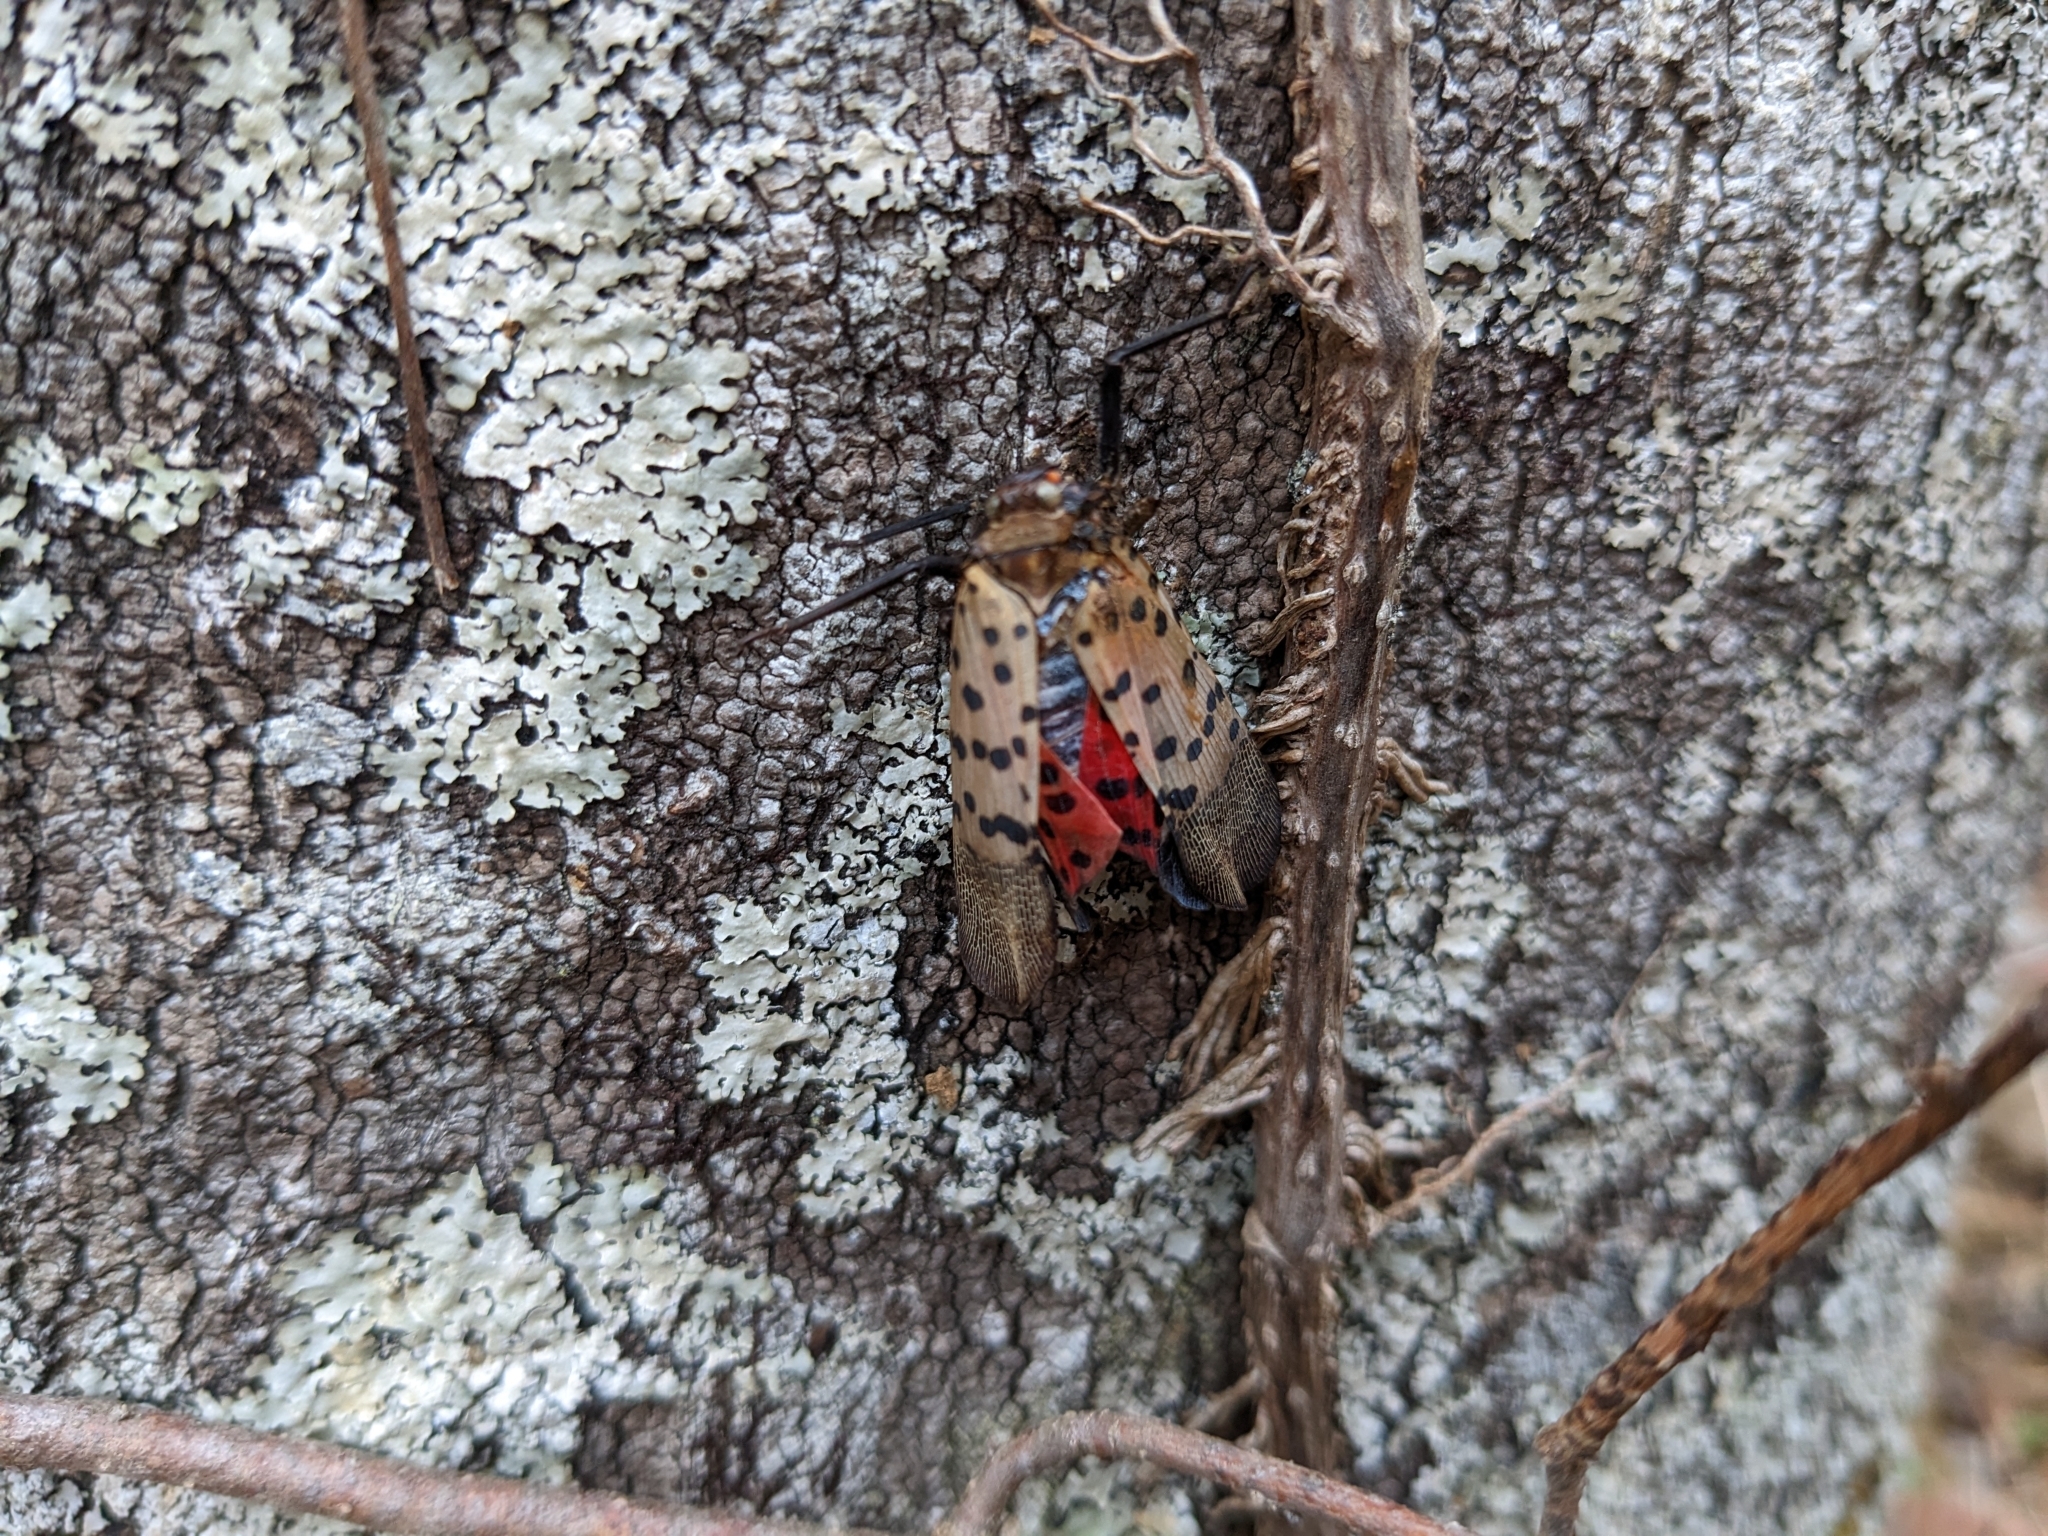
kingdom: Animalia
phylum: Arthropoda
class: Insecta
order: Hemiptera
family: Fulgoridae
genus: Lycorma
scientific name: Lycorma delicatula
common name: Spotted lanternfly
